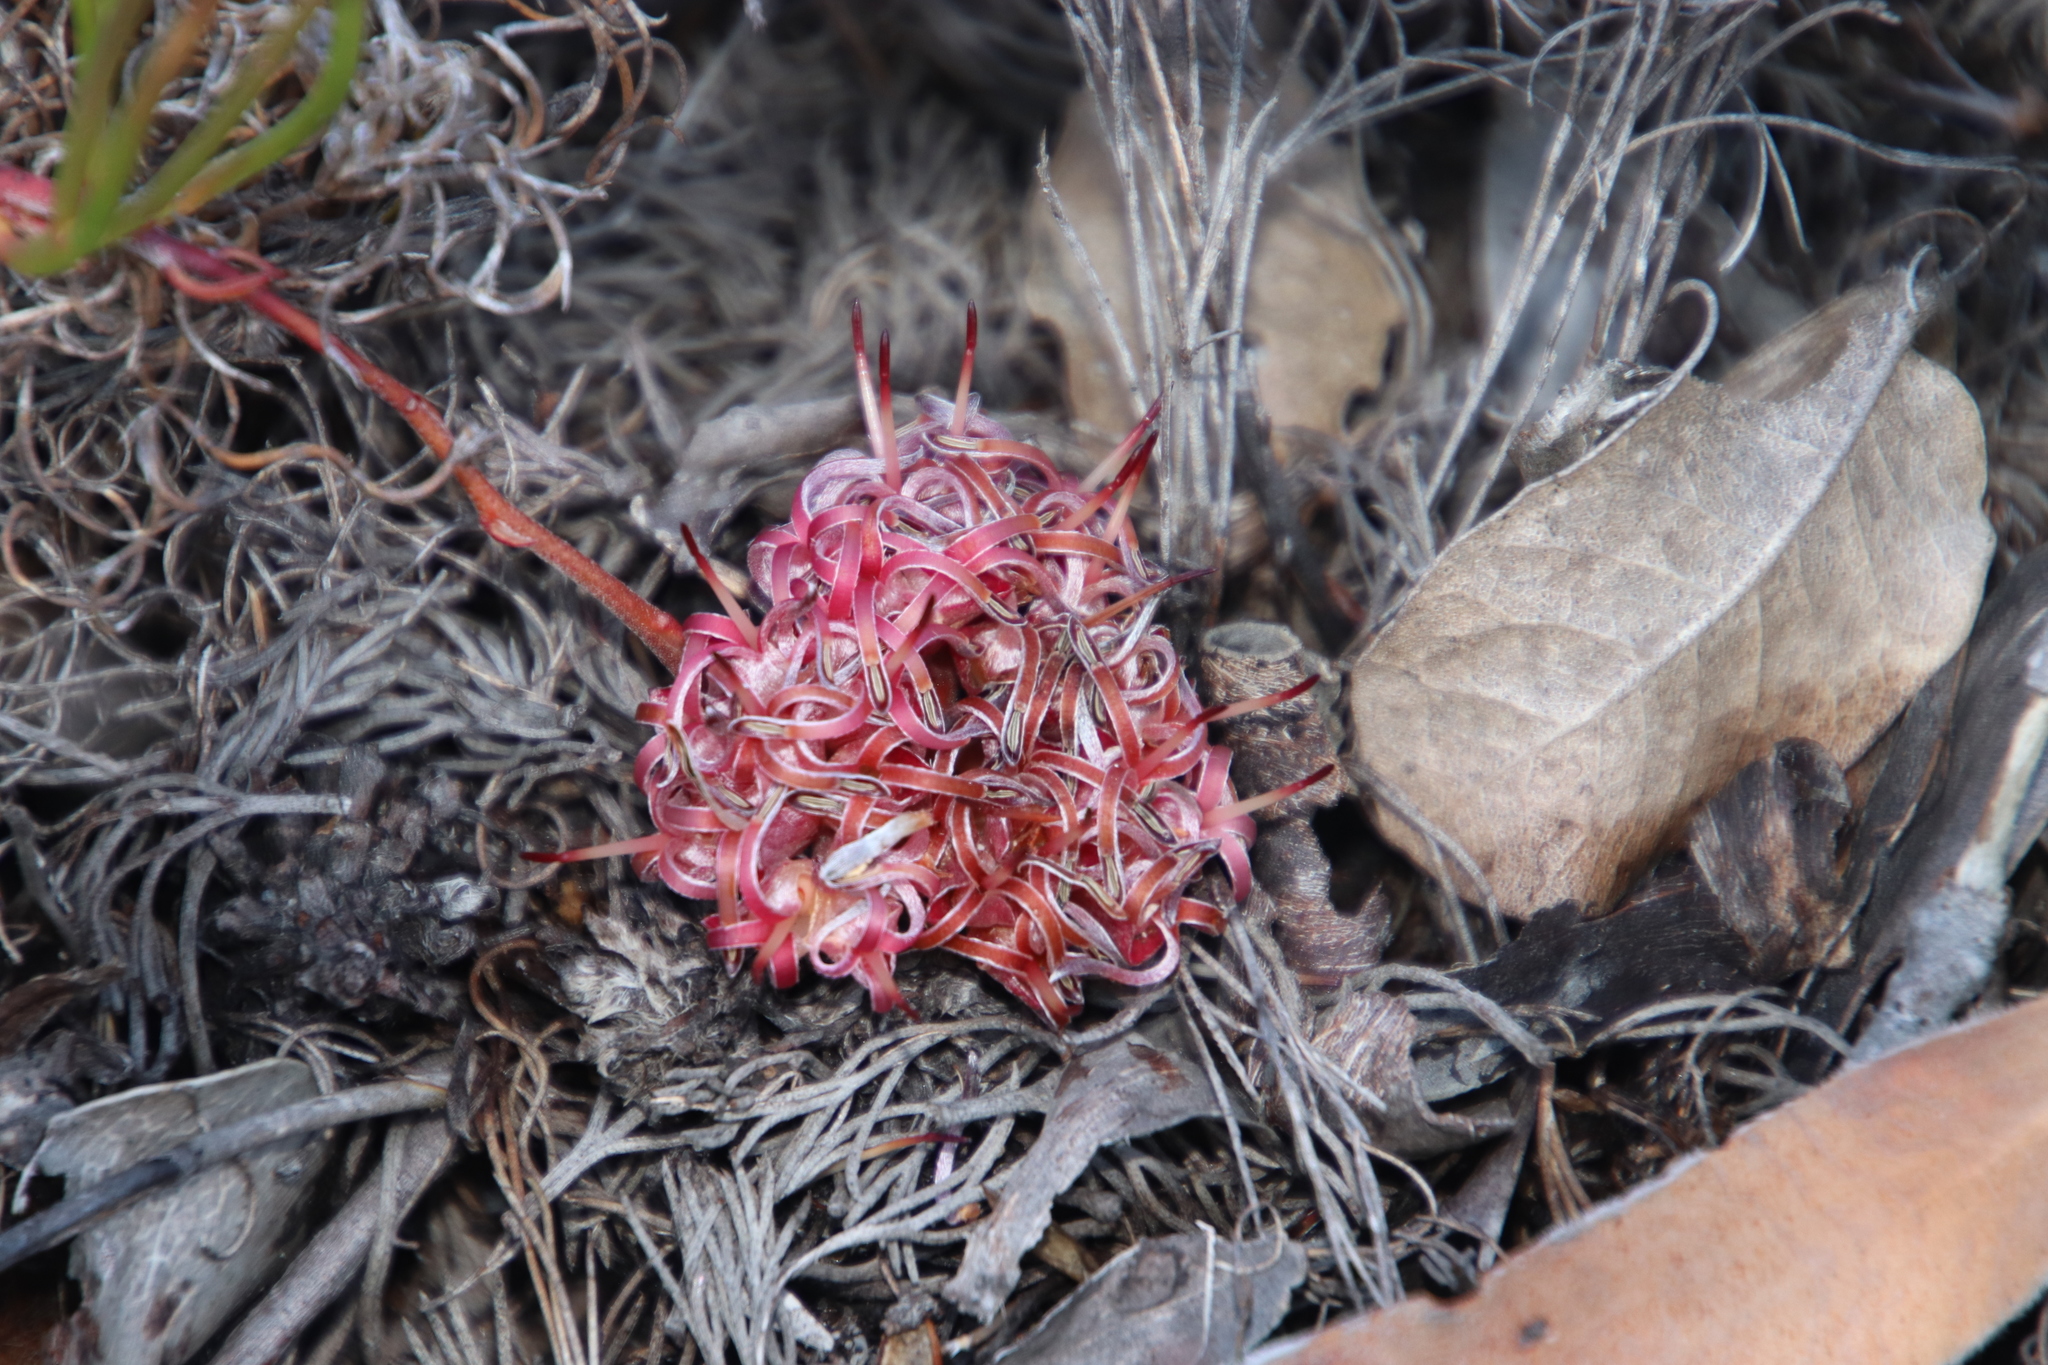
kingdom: Plantae
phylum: Tracheophyta
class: Magnoliopsida
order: Proteales
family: Proteaceae
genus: Serruria
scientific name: Serruria decumbens
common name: Peninsula spiderhead
